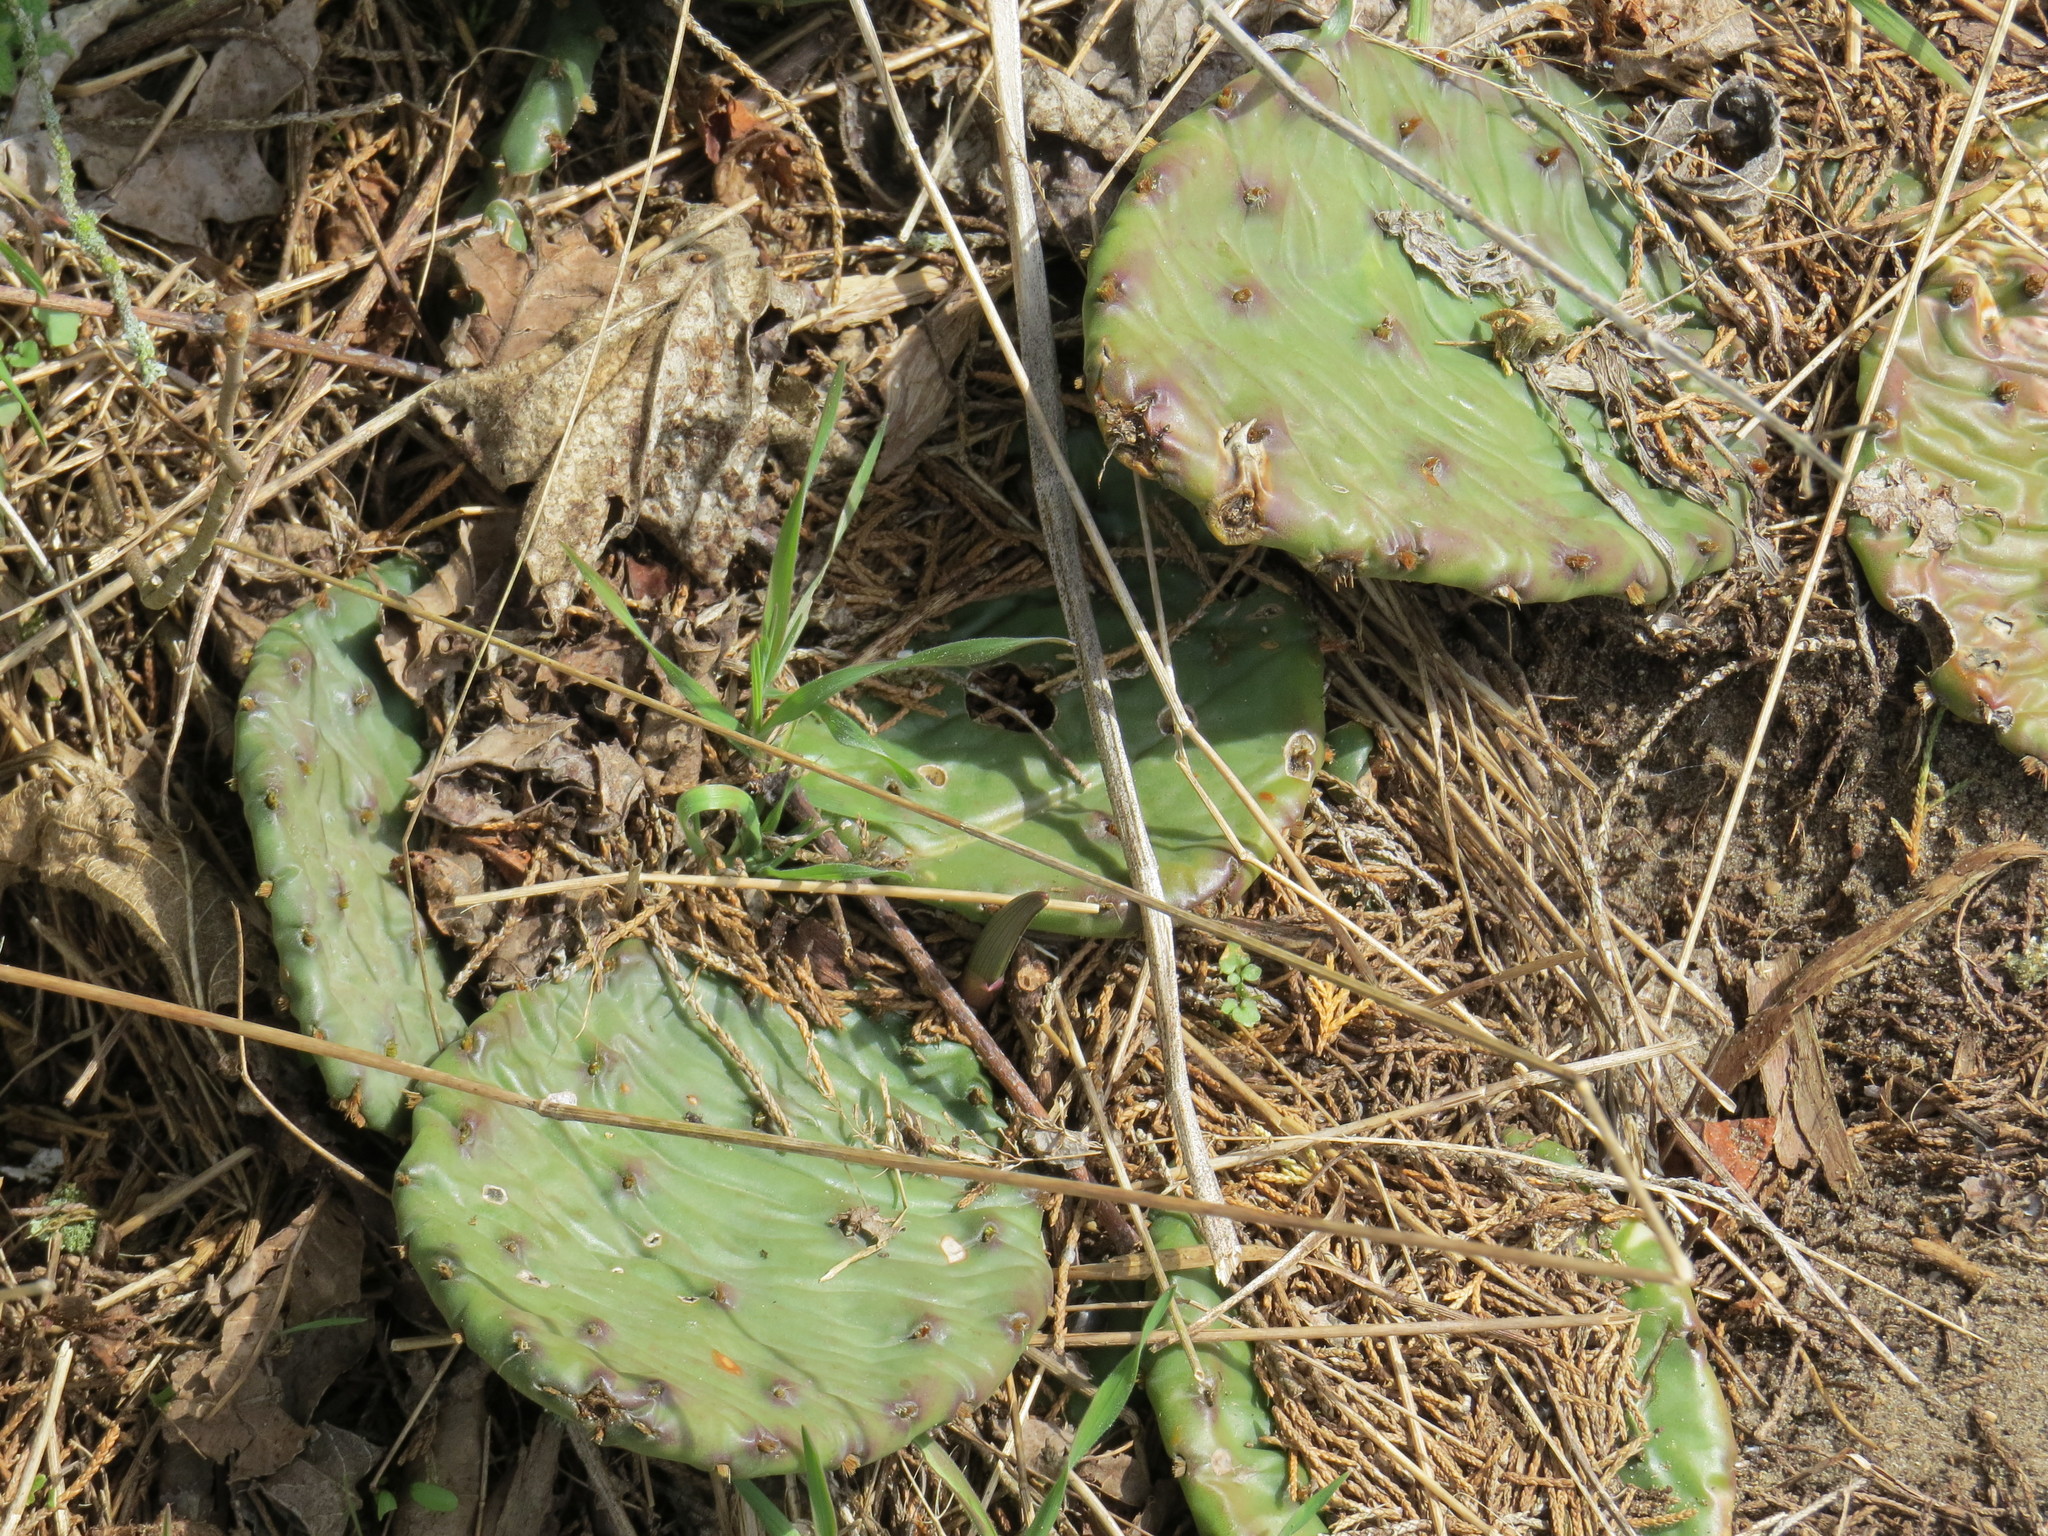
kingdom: Plantae
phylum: Tracheophyta
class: Magnoliopsida
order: Caryophyllales
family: Cactaceae
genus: Opuntia
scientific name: Opuntia humifusa
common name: Eastern prickly-pear
